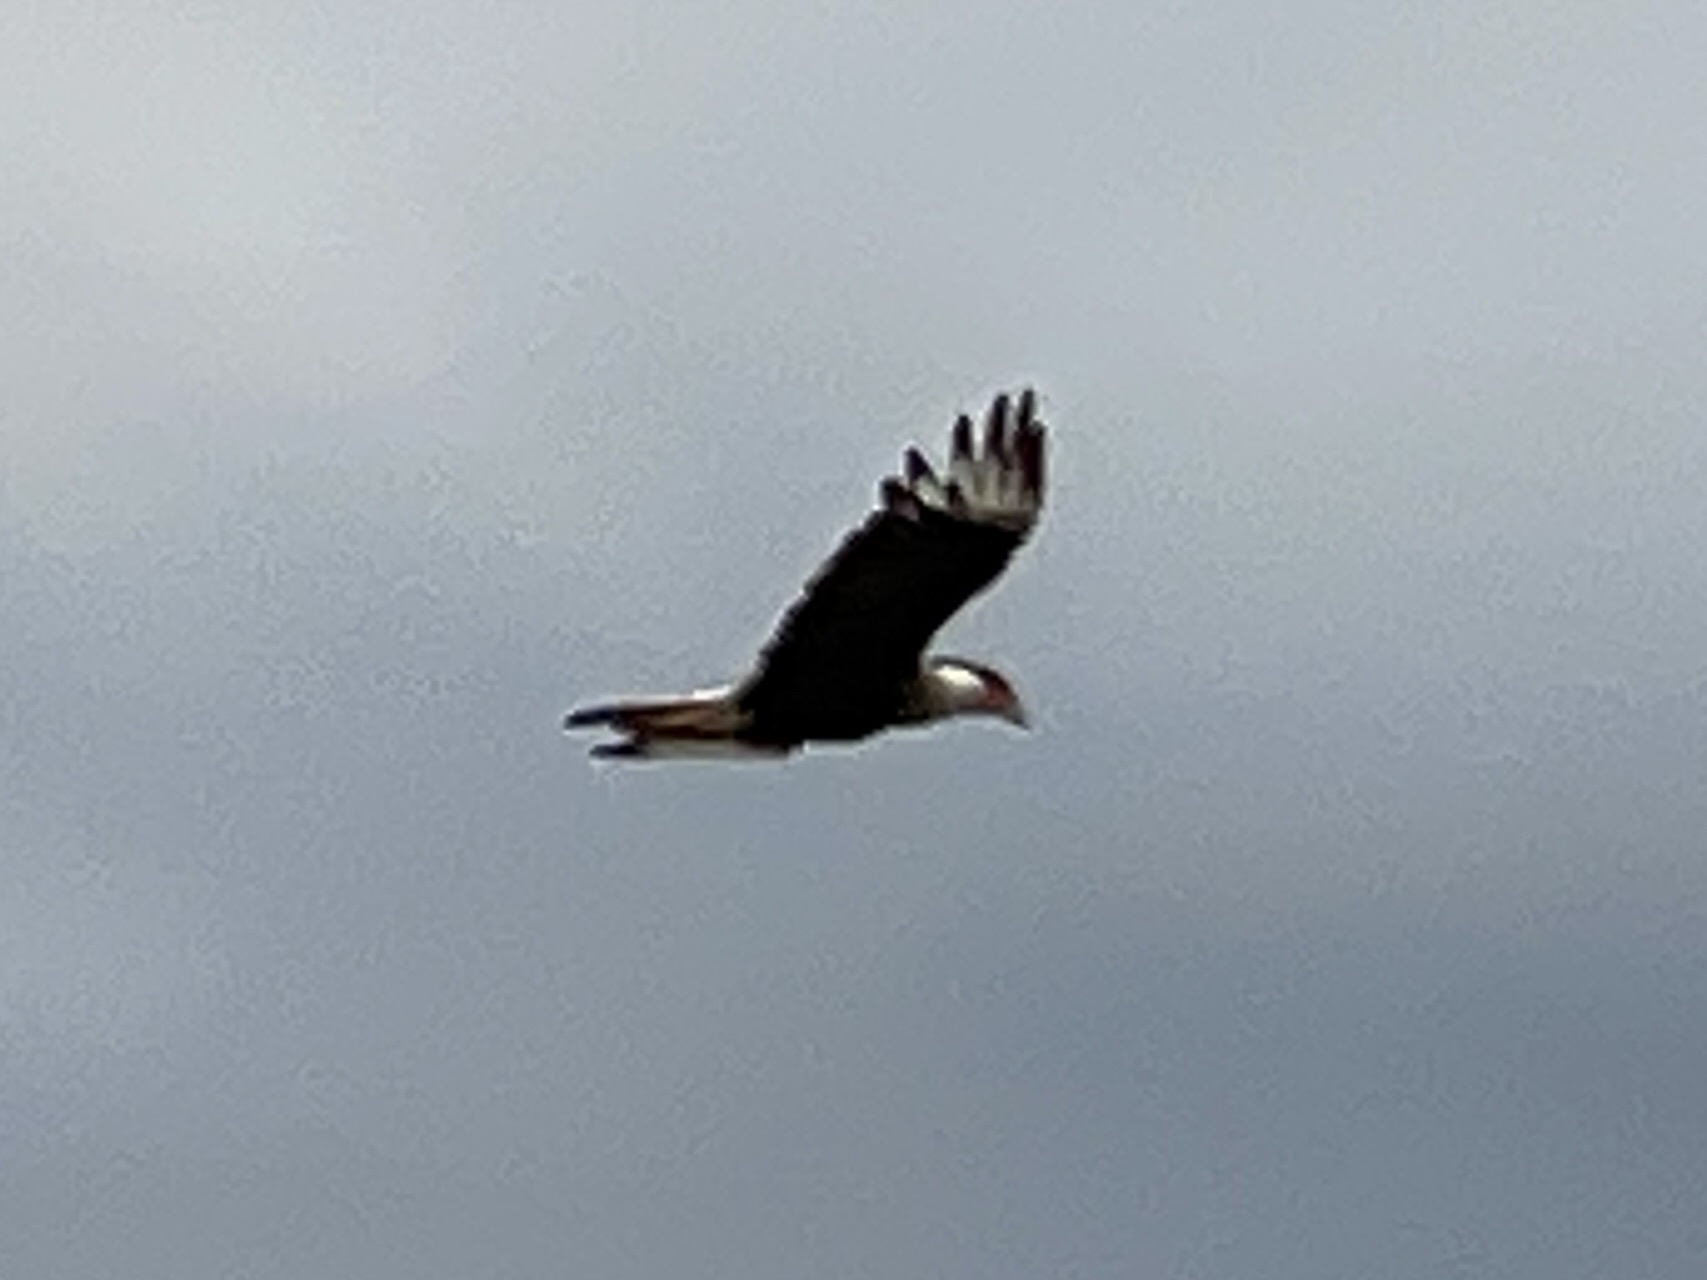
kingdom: Animalia
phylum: Chordata
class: Aves
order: Falconiformes
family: Falconidae
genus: Caracara
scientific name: Caracara plancus
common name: Southern caracara
